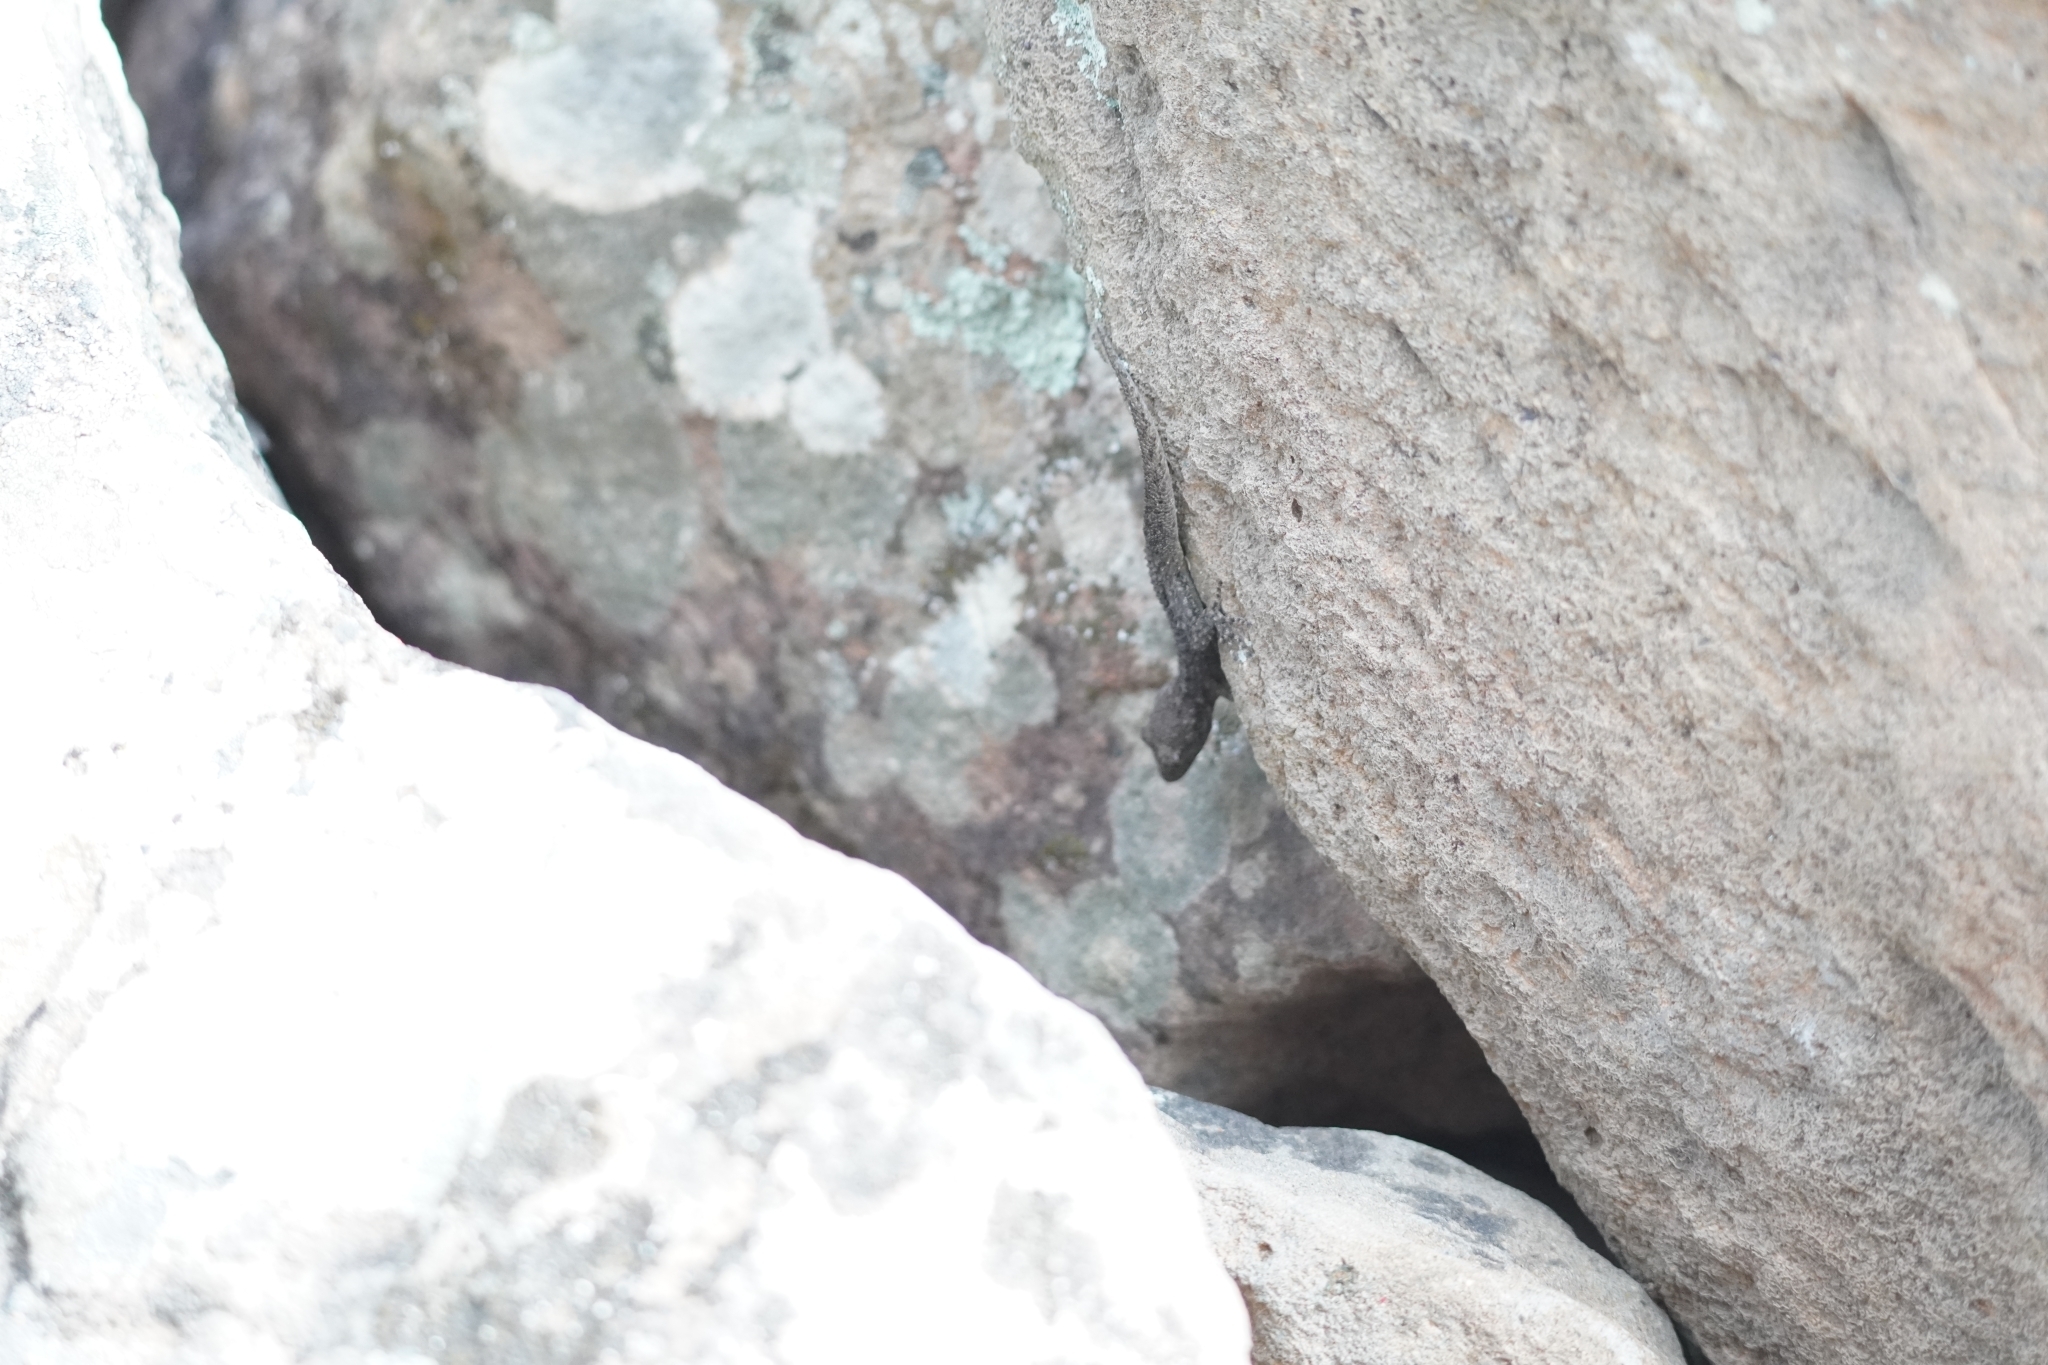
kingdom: Animalia
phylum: Chordata
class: Squamata
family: Gekkonidae
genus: Mediodactylus
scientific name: Mediodactylus kotschyi
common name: Kotschy's gecko
